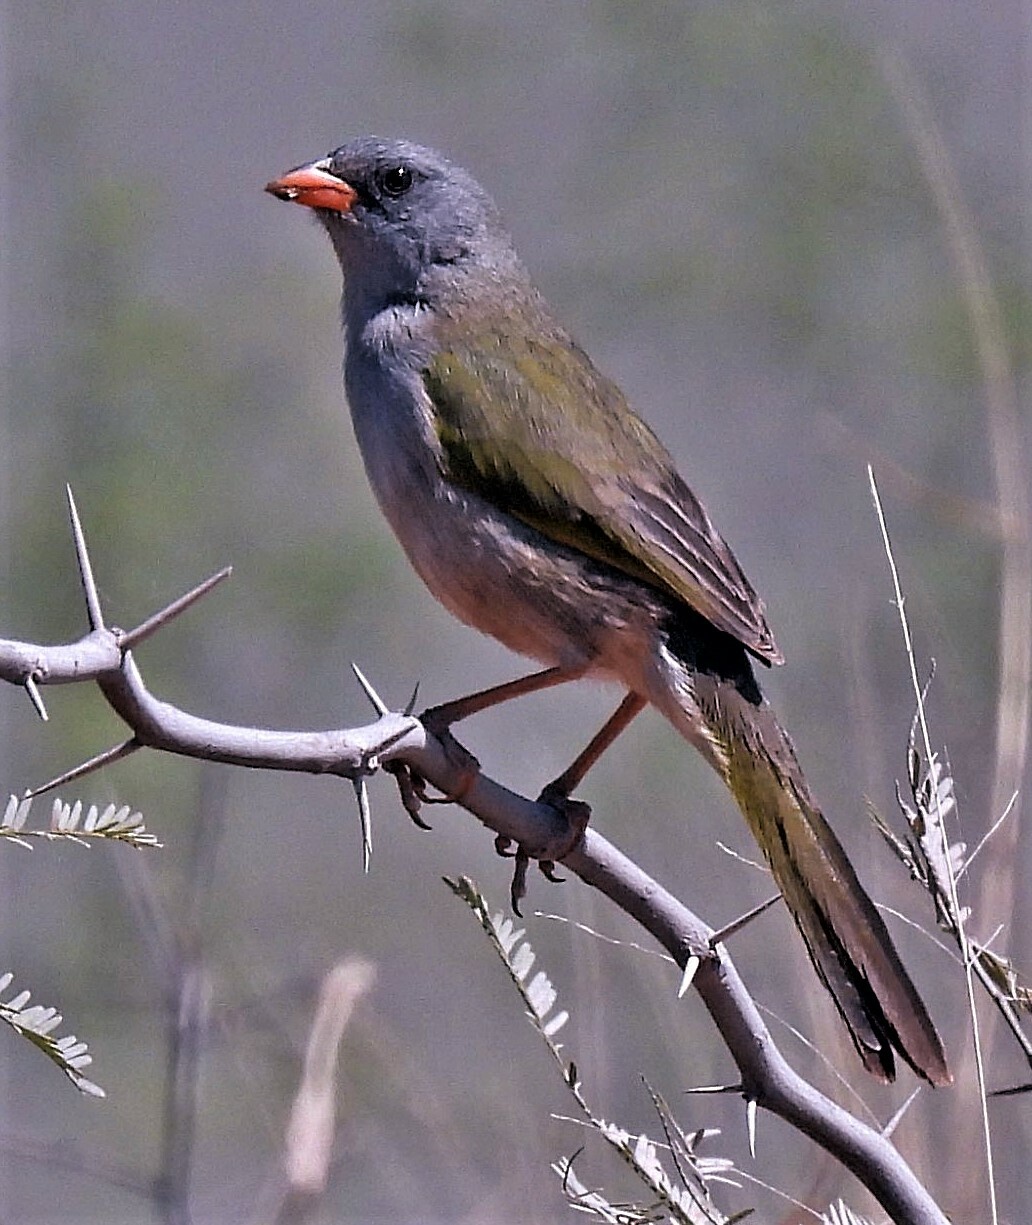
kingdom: Animalia
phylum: Chordata
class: Aves
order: Passeriformes
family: Thraupidae
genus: Embernagra
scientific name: Embernagra platensis
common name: Pampa finch
